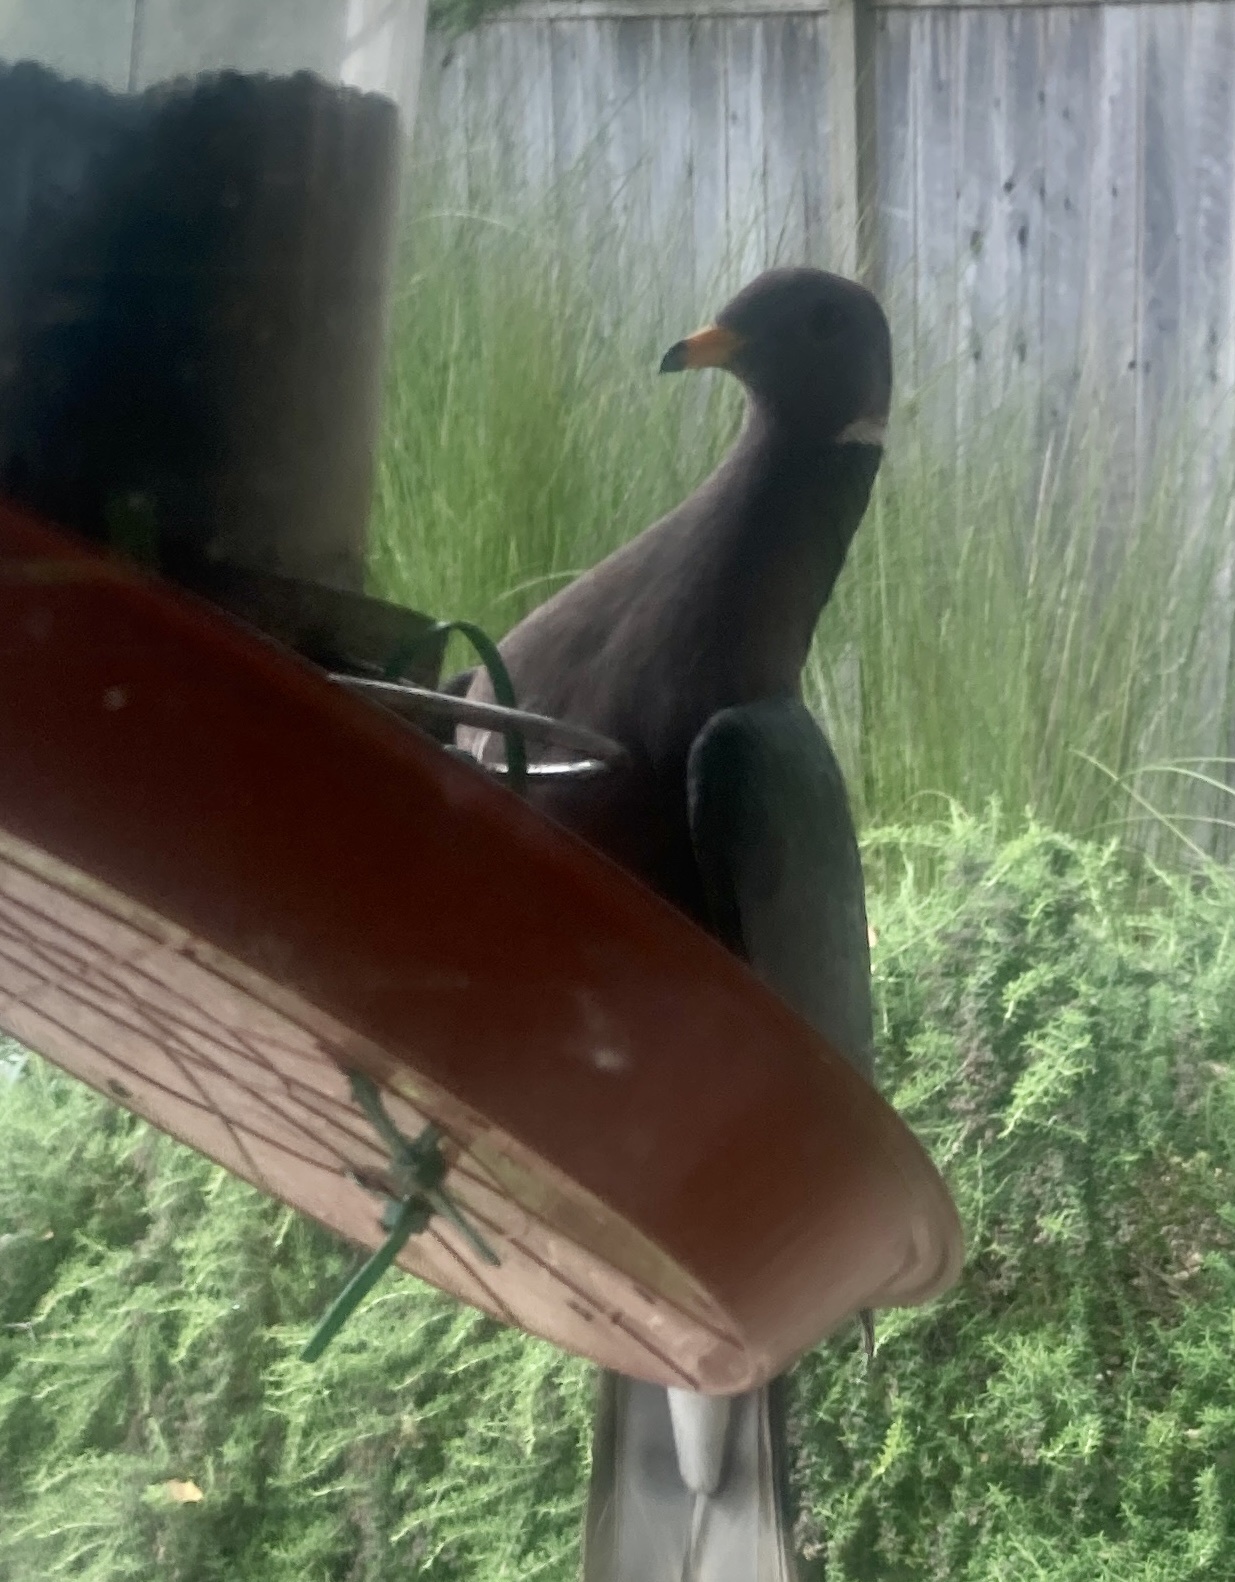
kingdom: Animalia
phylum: Chordata
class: Aves
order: Columbiformes
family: Columbidae
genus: Patagioenas
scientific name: Patagioenas fasciata
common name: Band-tailed pigeon
